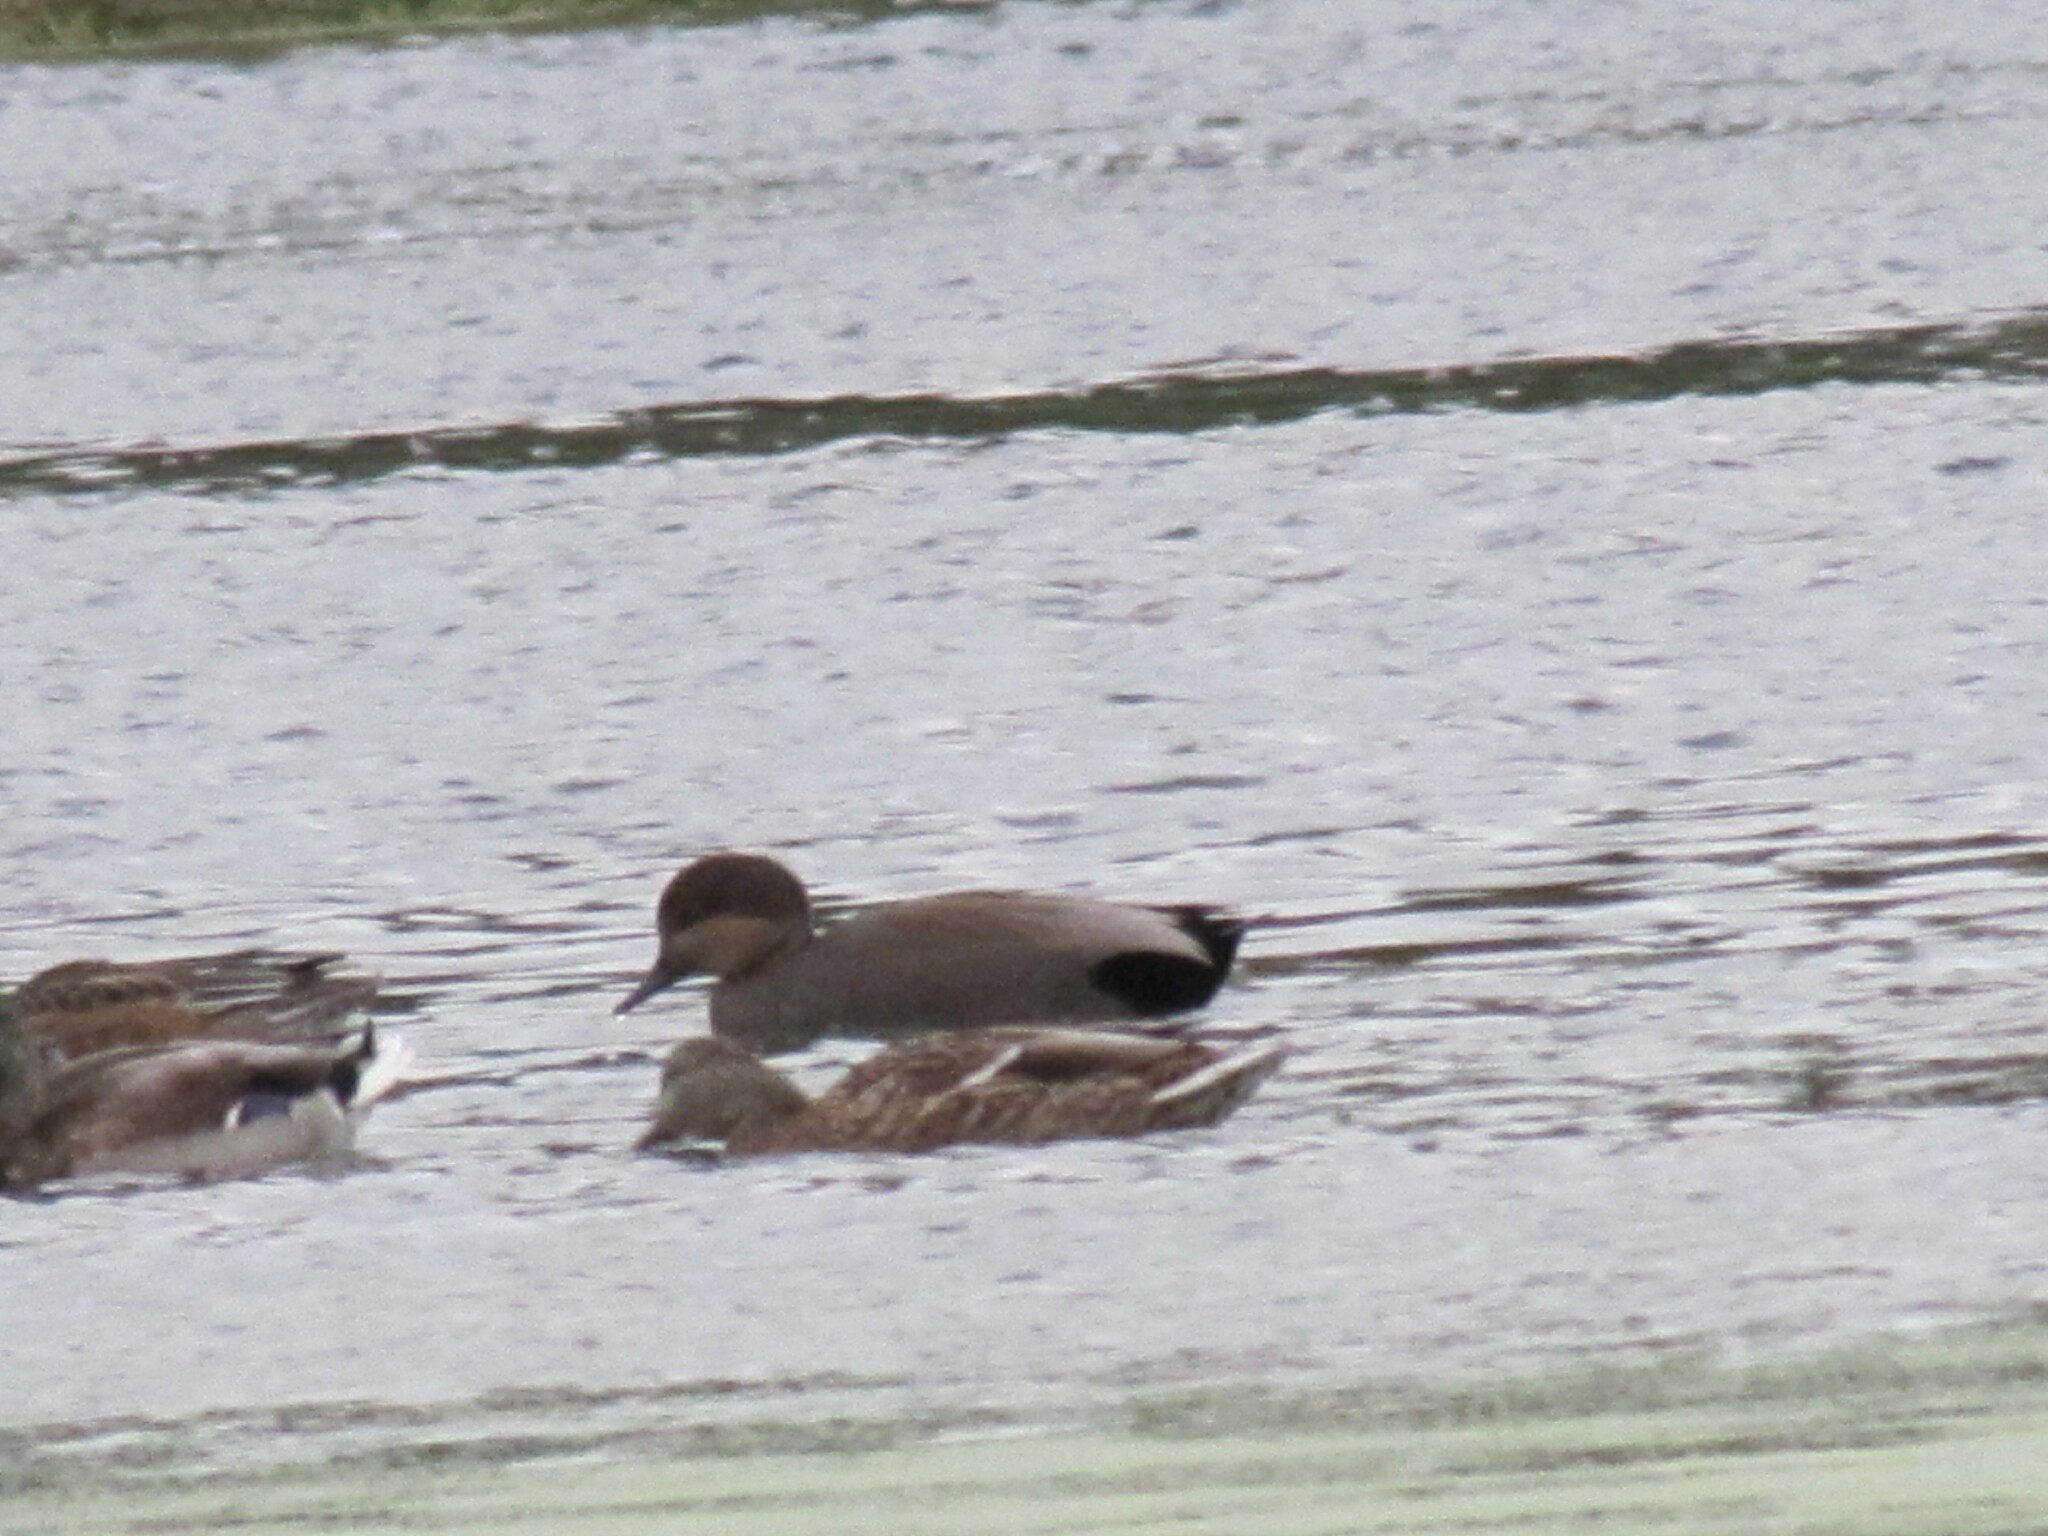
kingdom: Animalia
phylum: Chordata
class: Aves
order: Anseriformes
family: Anatidae
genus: Mareca
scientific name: Mareca strepera
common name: Gadwall
